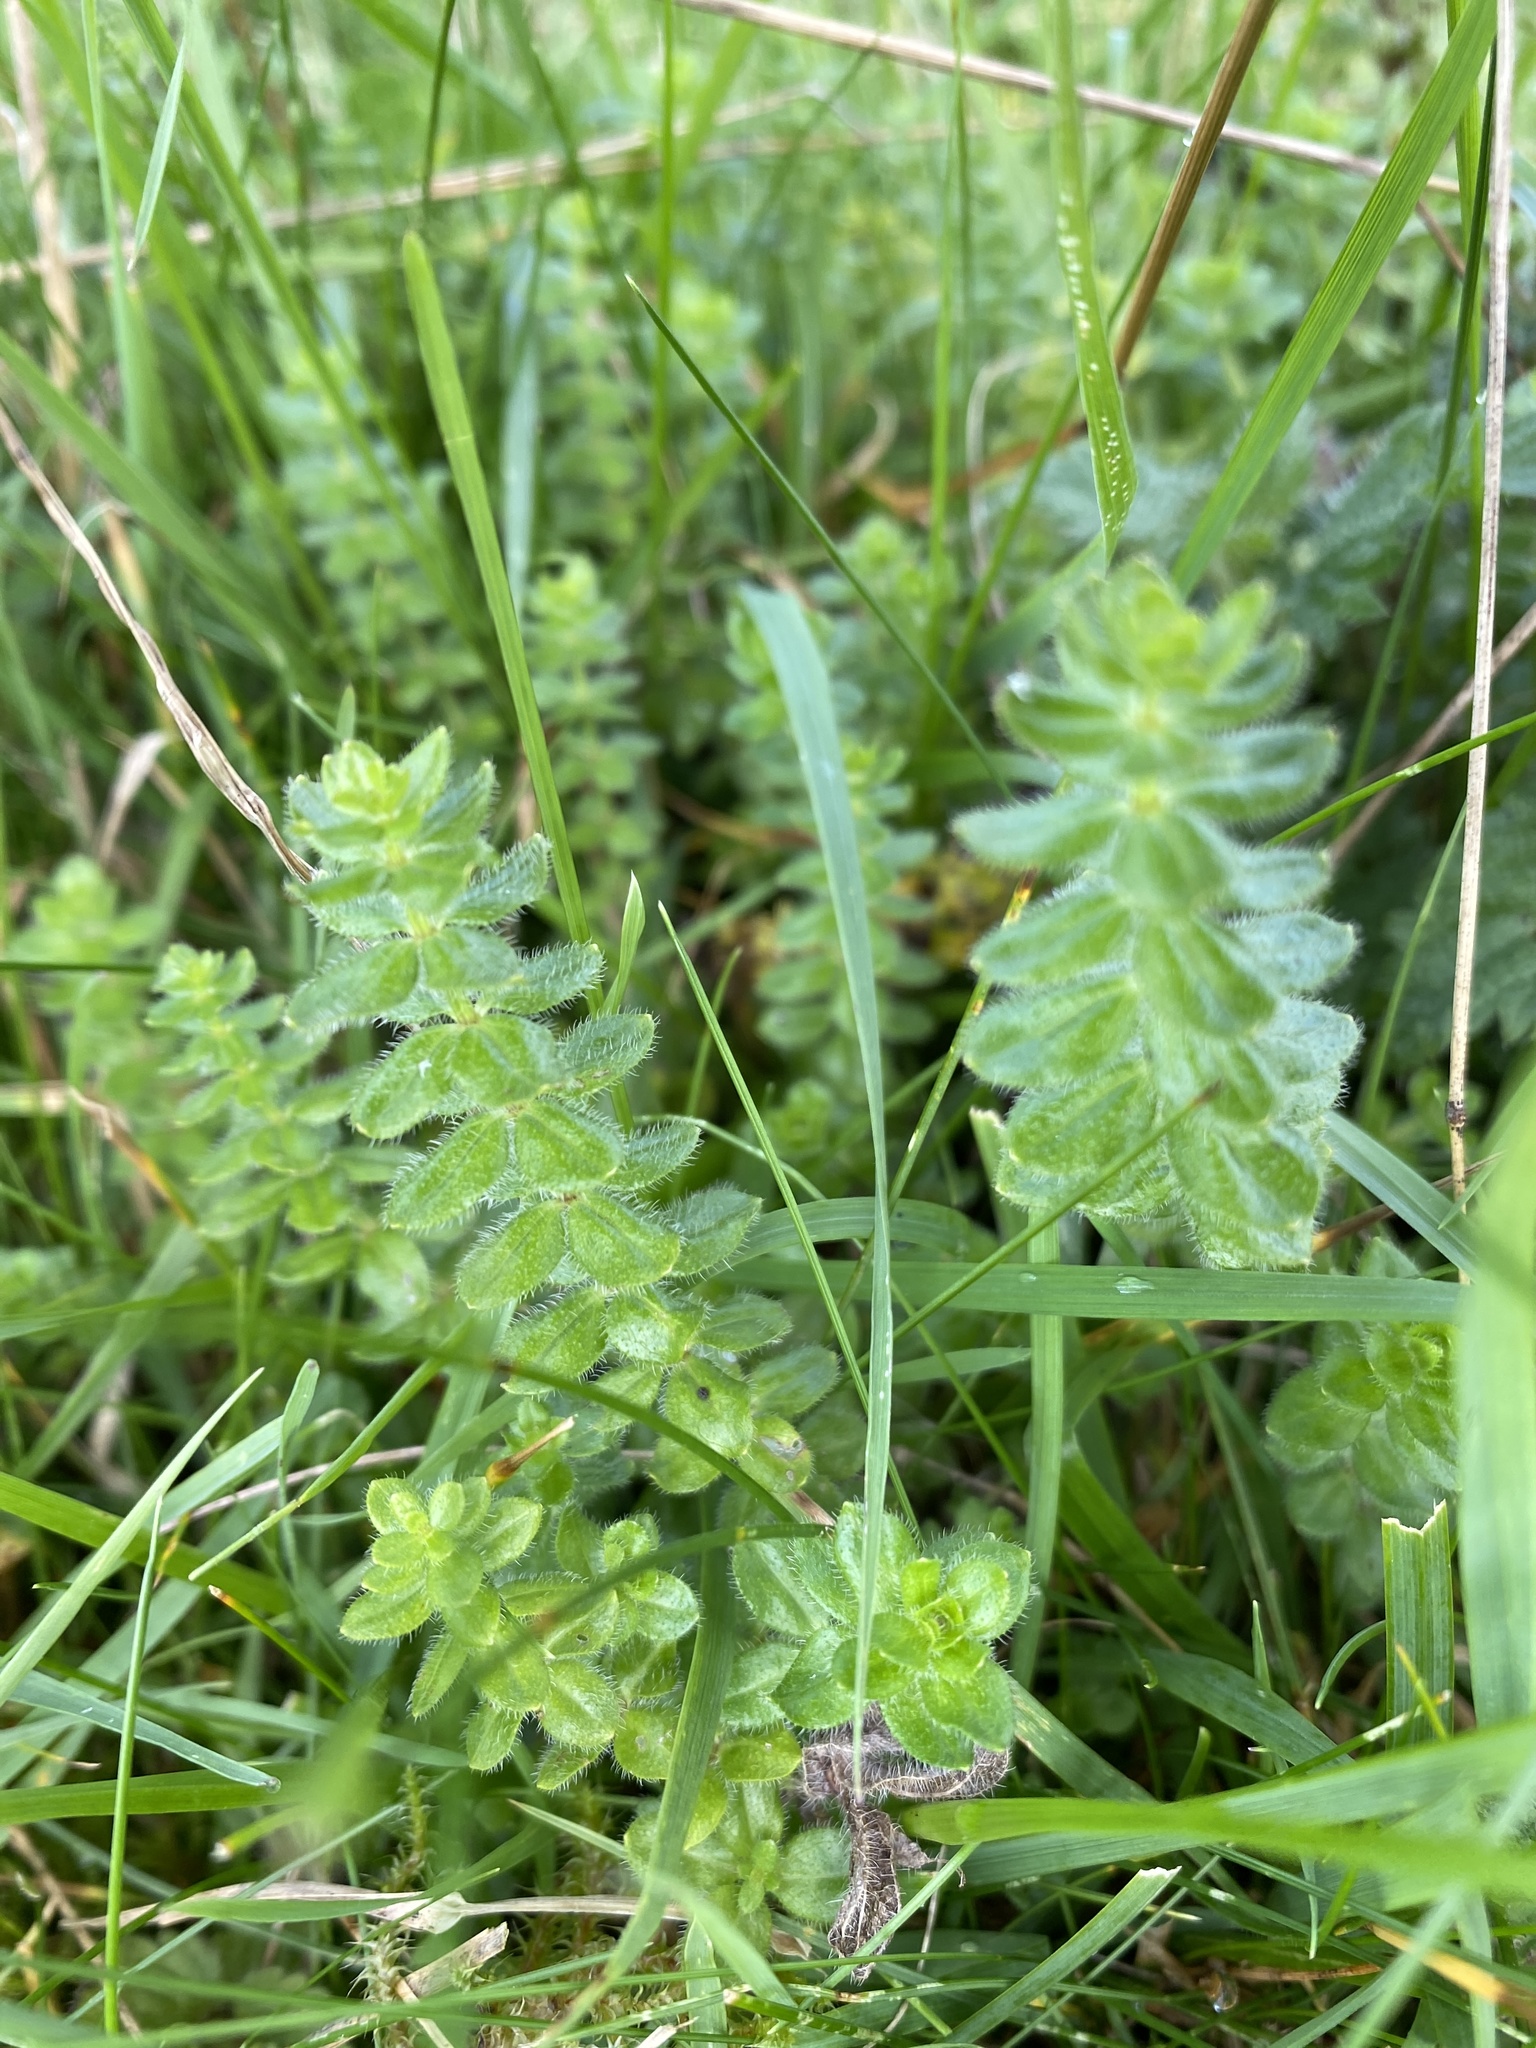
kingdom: Plantae
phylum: Tracheophyta
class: Magnoliopsida
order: Gentianales
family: Rubiaceae
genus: Cruciata
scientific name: Cruciata laevipes
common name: Crosswort
